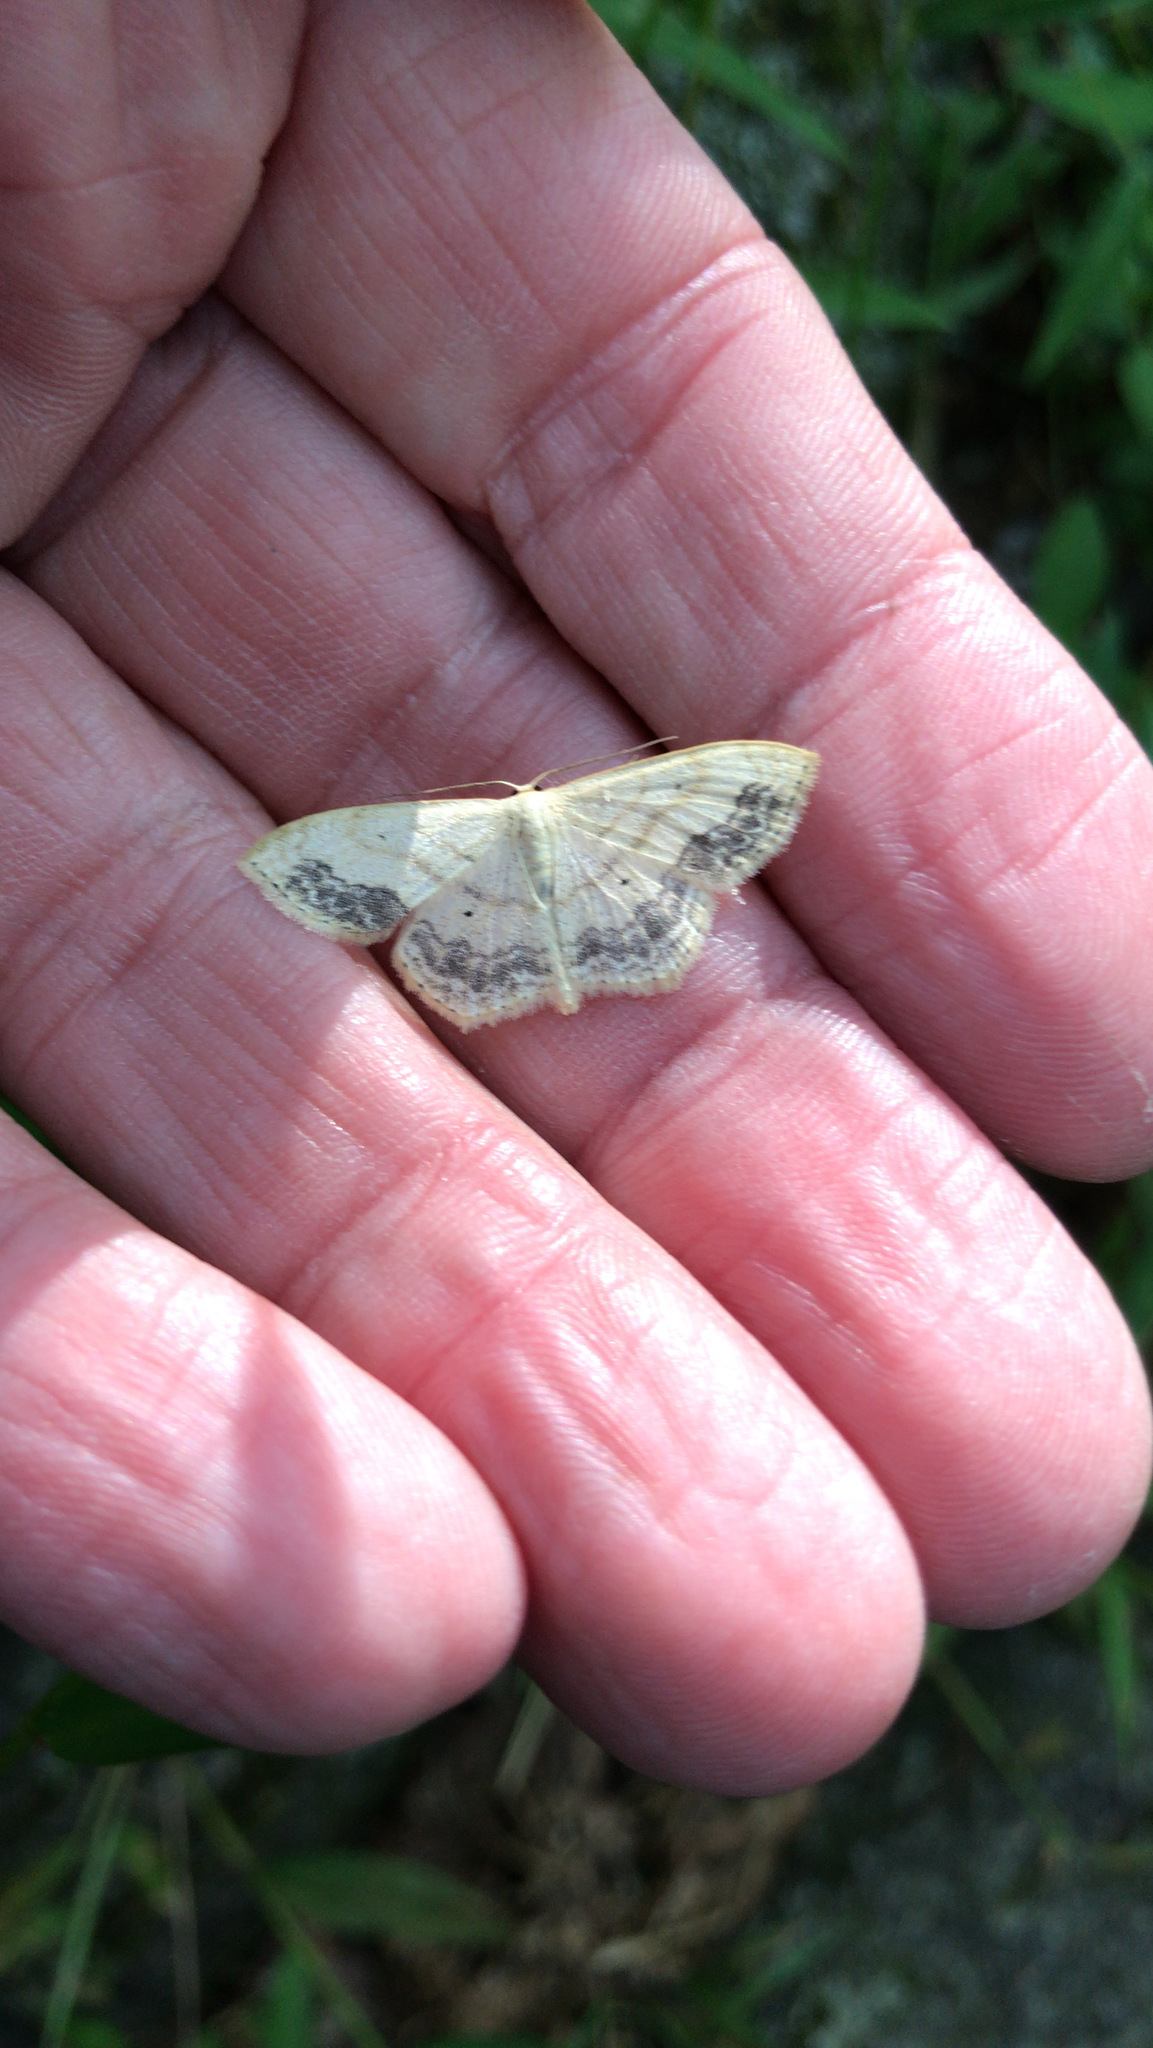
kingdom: Animalia
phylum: Arthropoda
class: Insecta
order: Lepidoptera
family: Geometridae
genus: Scopula
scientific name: Scopula limboundata
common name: Large lace border
